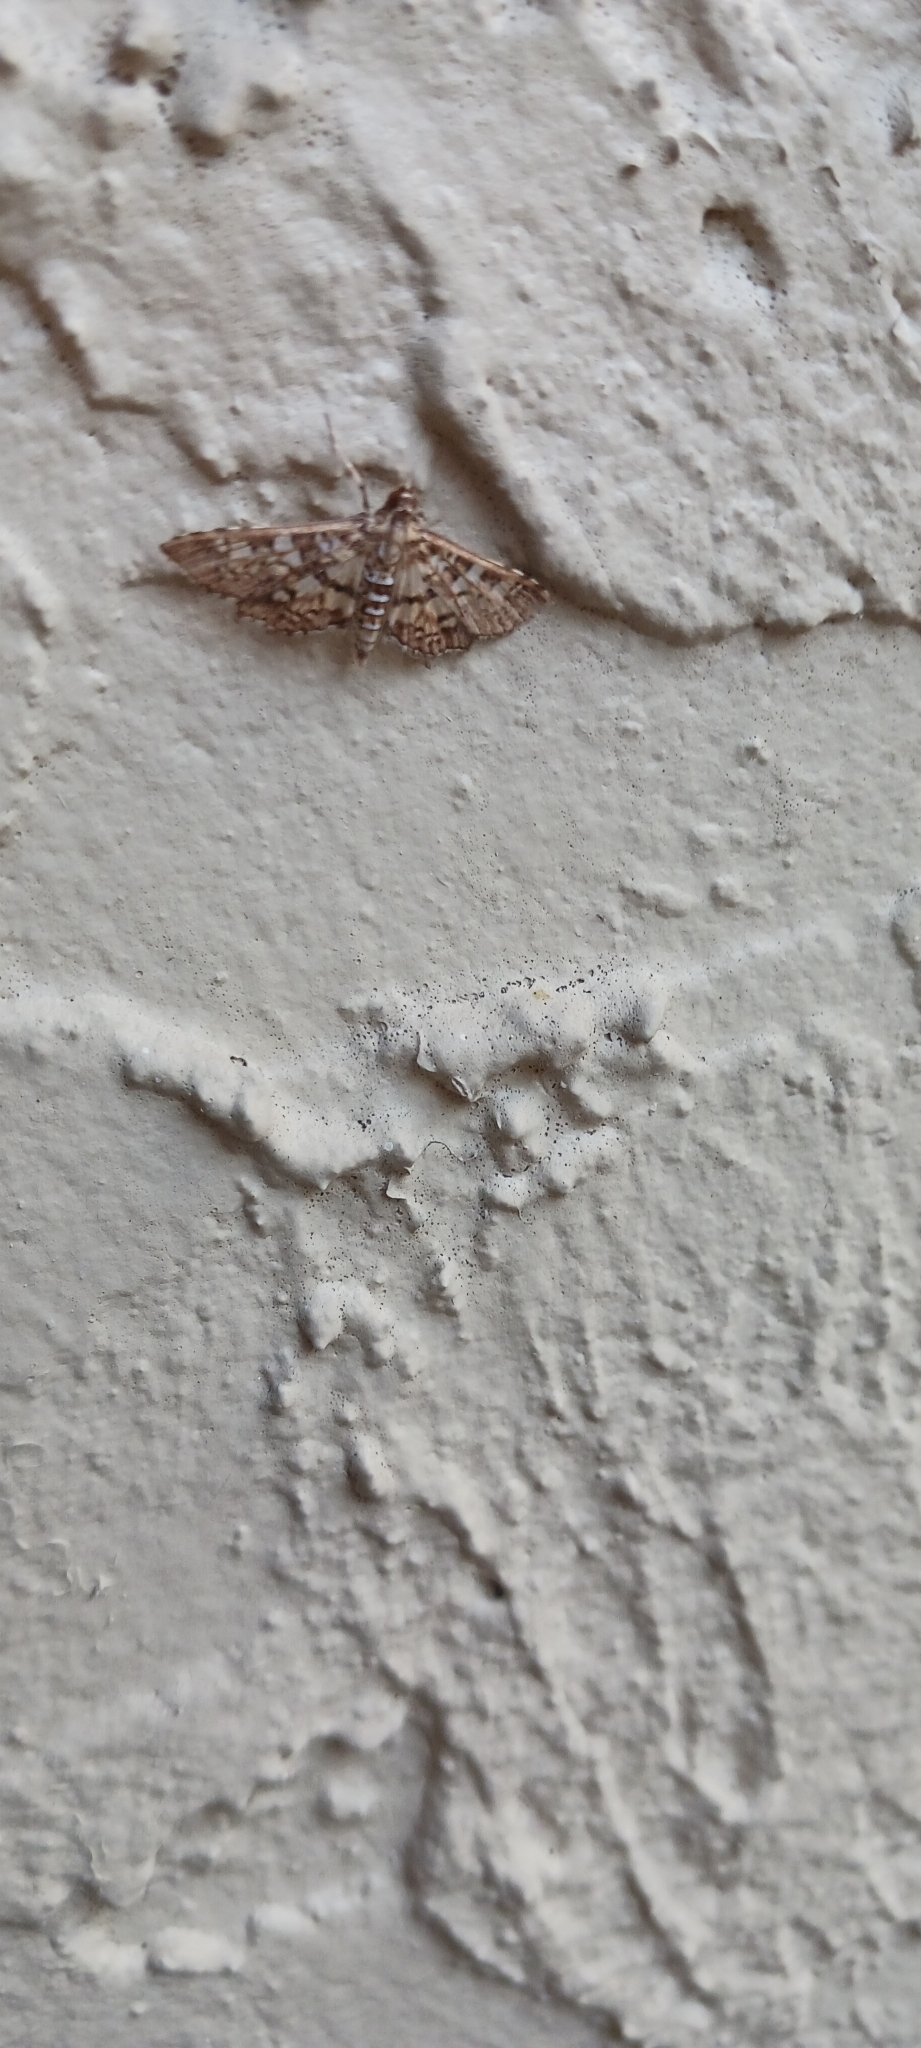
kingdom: Animalia
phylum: Arthropoda
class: Insecta
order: Lepidoptera
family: Crambidae
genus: Samea
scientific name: Samea ecclesialis
